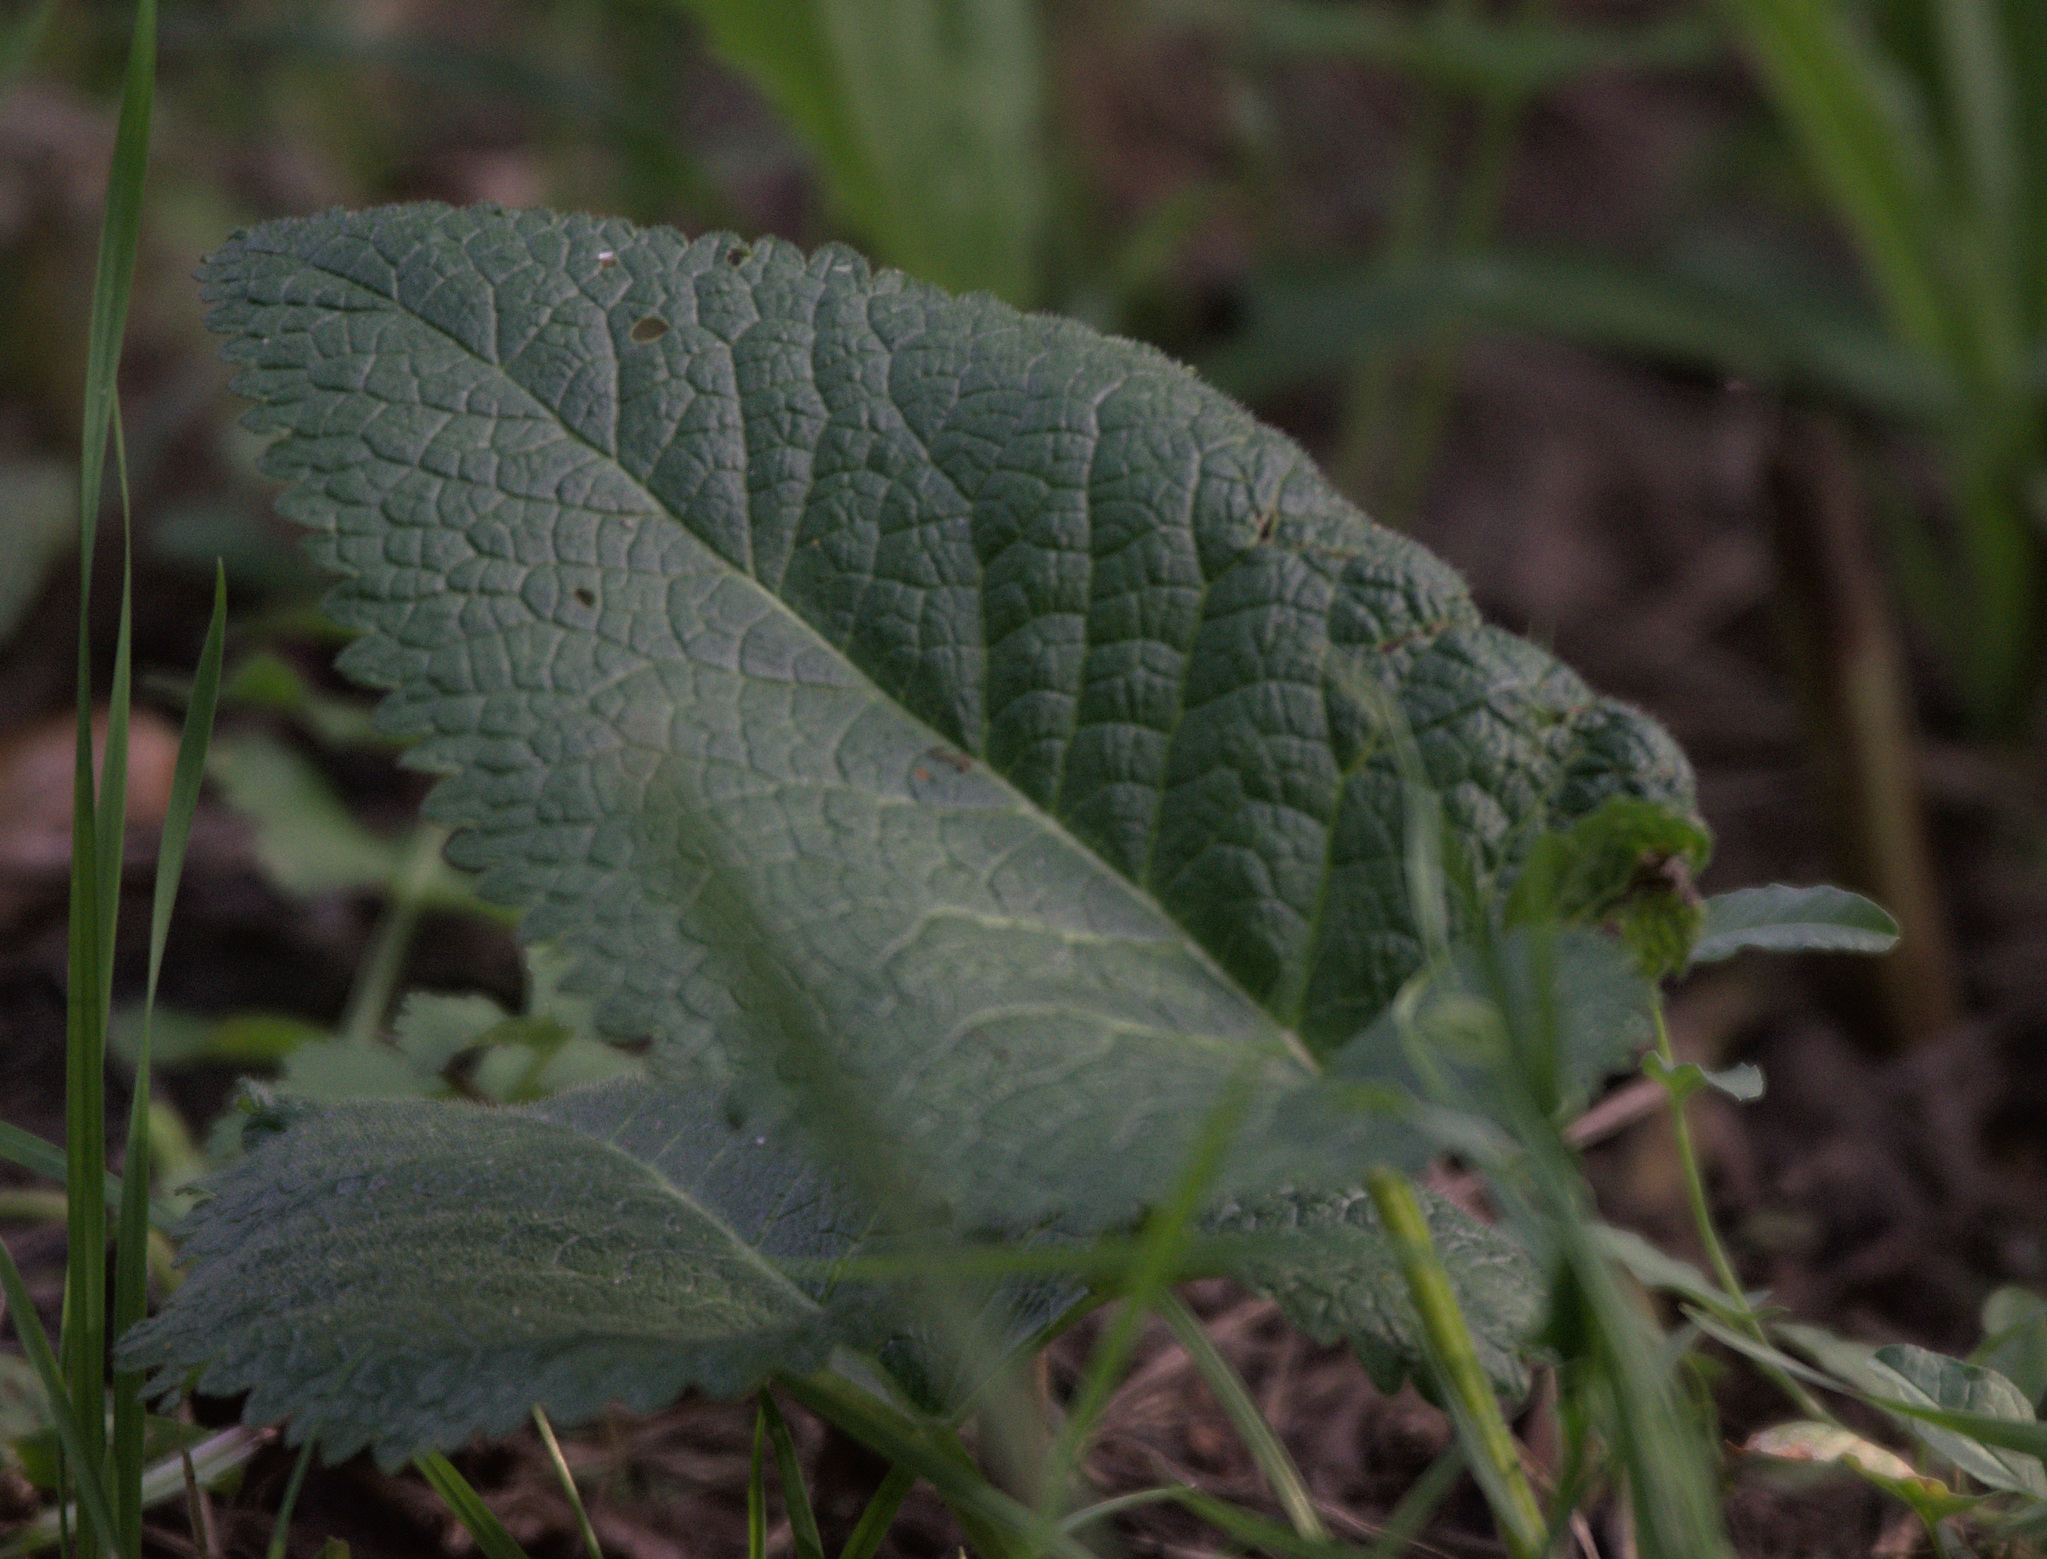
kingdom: Plantae
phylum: Tracheophyta
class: Magnoliopsida
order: Lamiales
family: Lamiaceae
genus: Phlomoides
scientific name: Phlomoides tuberosa
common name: Tuberous jerusalem sage
